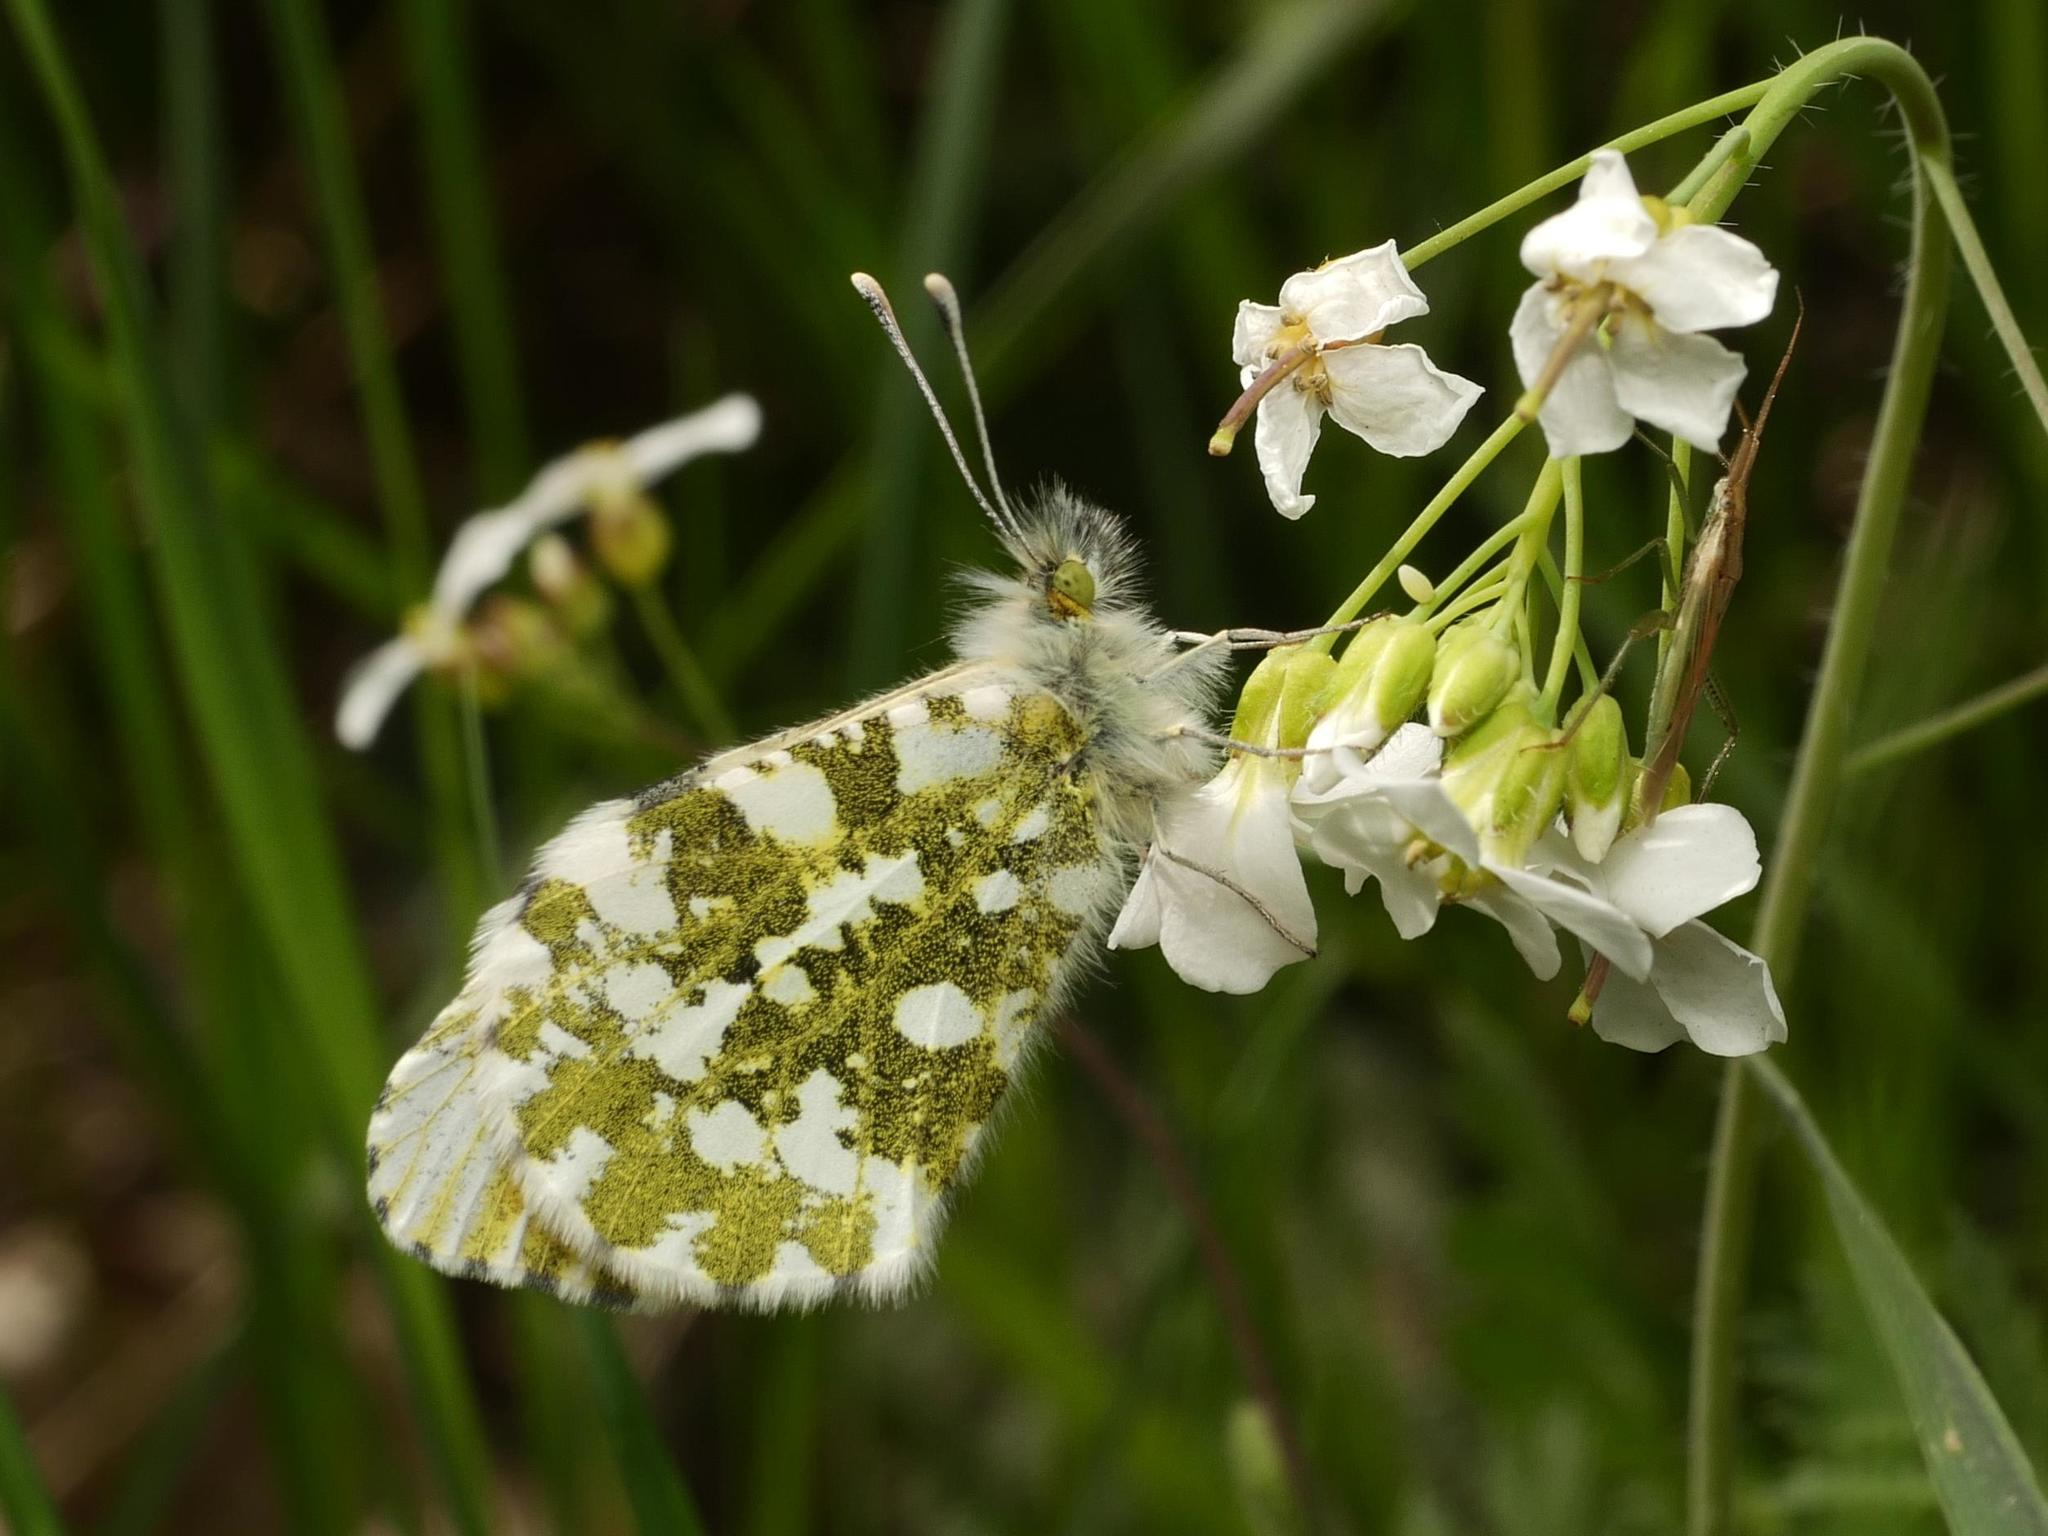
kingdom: Animalia
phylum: Arthropoda
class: Insecta
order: Lepidoptera
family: Pieridae
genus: Anthocharis
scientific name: Anthocharis cardamines
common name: Orange-tip
